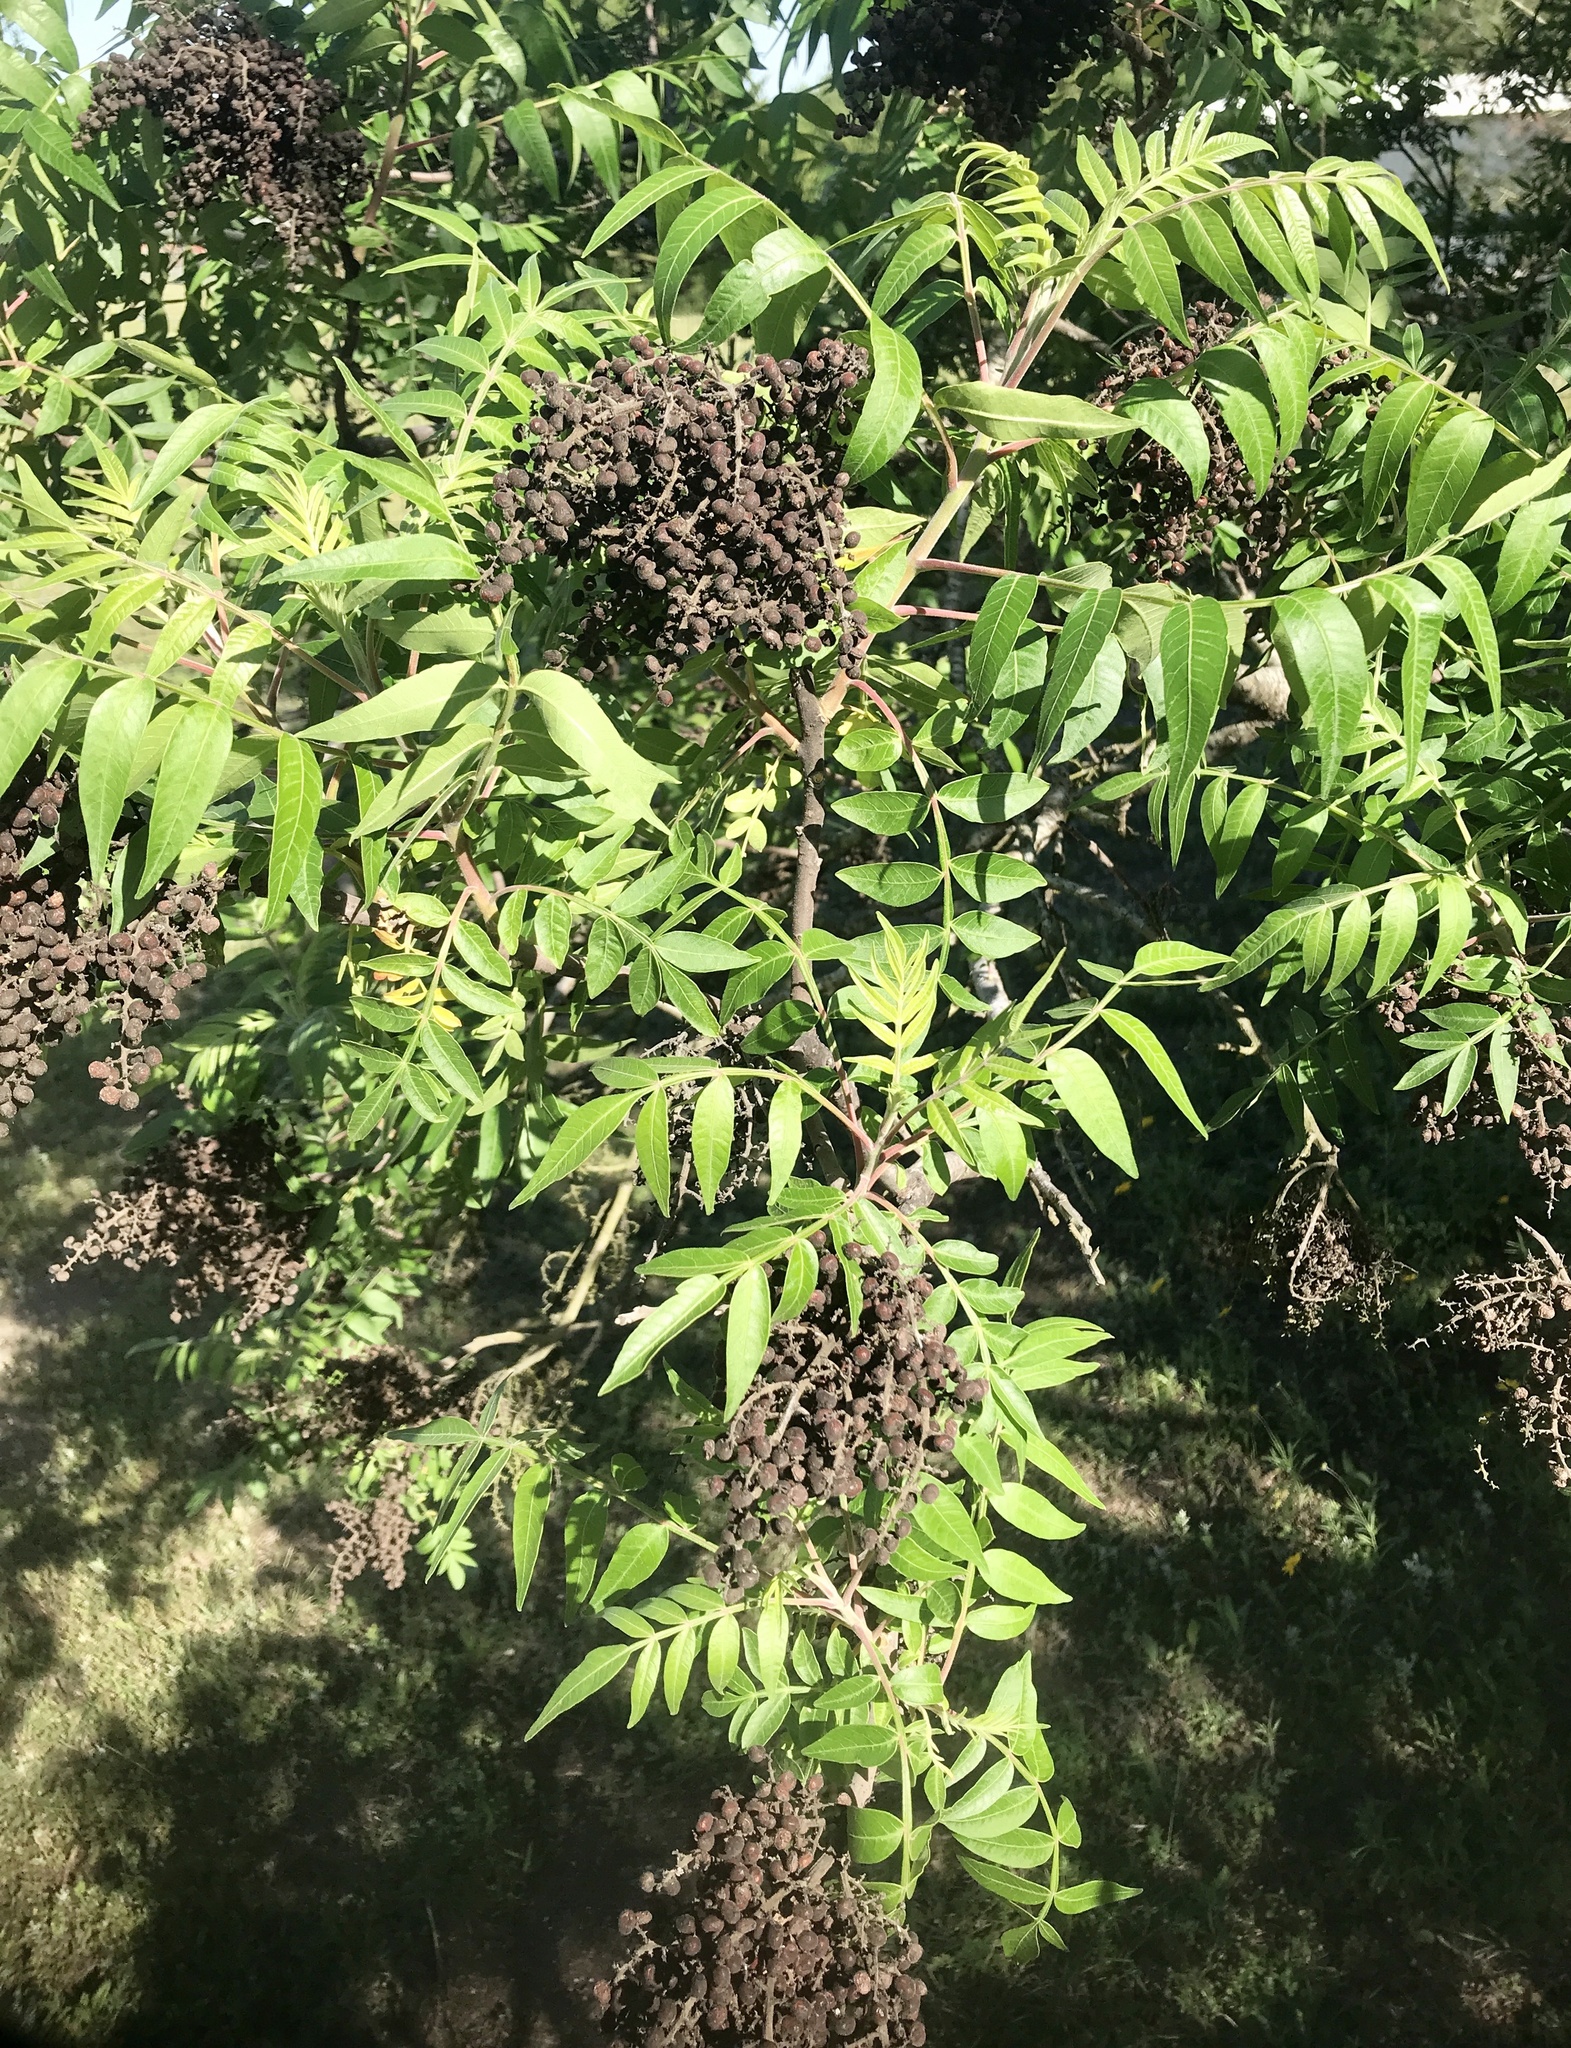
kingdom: Plantae
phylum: Tracheophyta
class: Magnoliopsida
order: Sapindales
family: Anacardiaceae
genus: Rhus
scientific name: Rhus lanceolata
